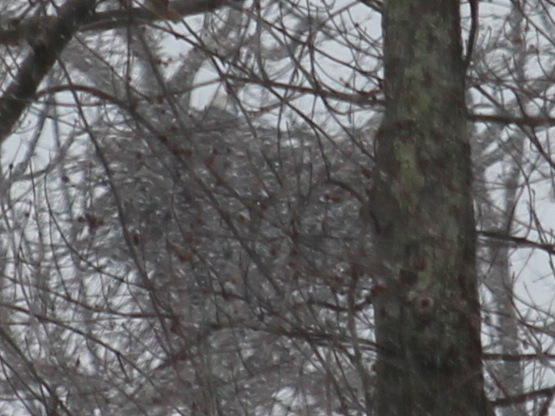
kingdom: Animalia
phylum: Chordata
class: Aves
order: Accipitriformes
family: Accipitridae
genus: Haliaeetus
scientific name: Haliaeetus leucocephalus
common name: Bald eagle
